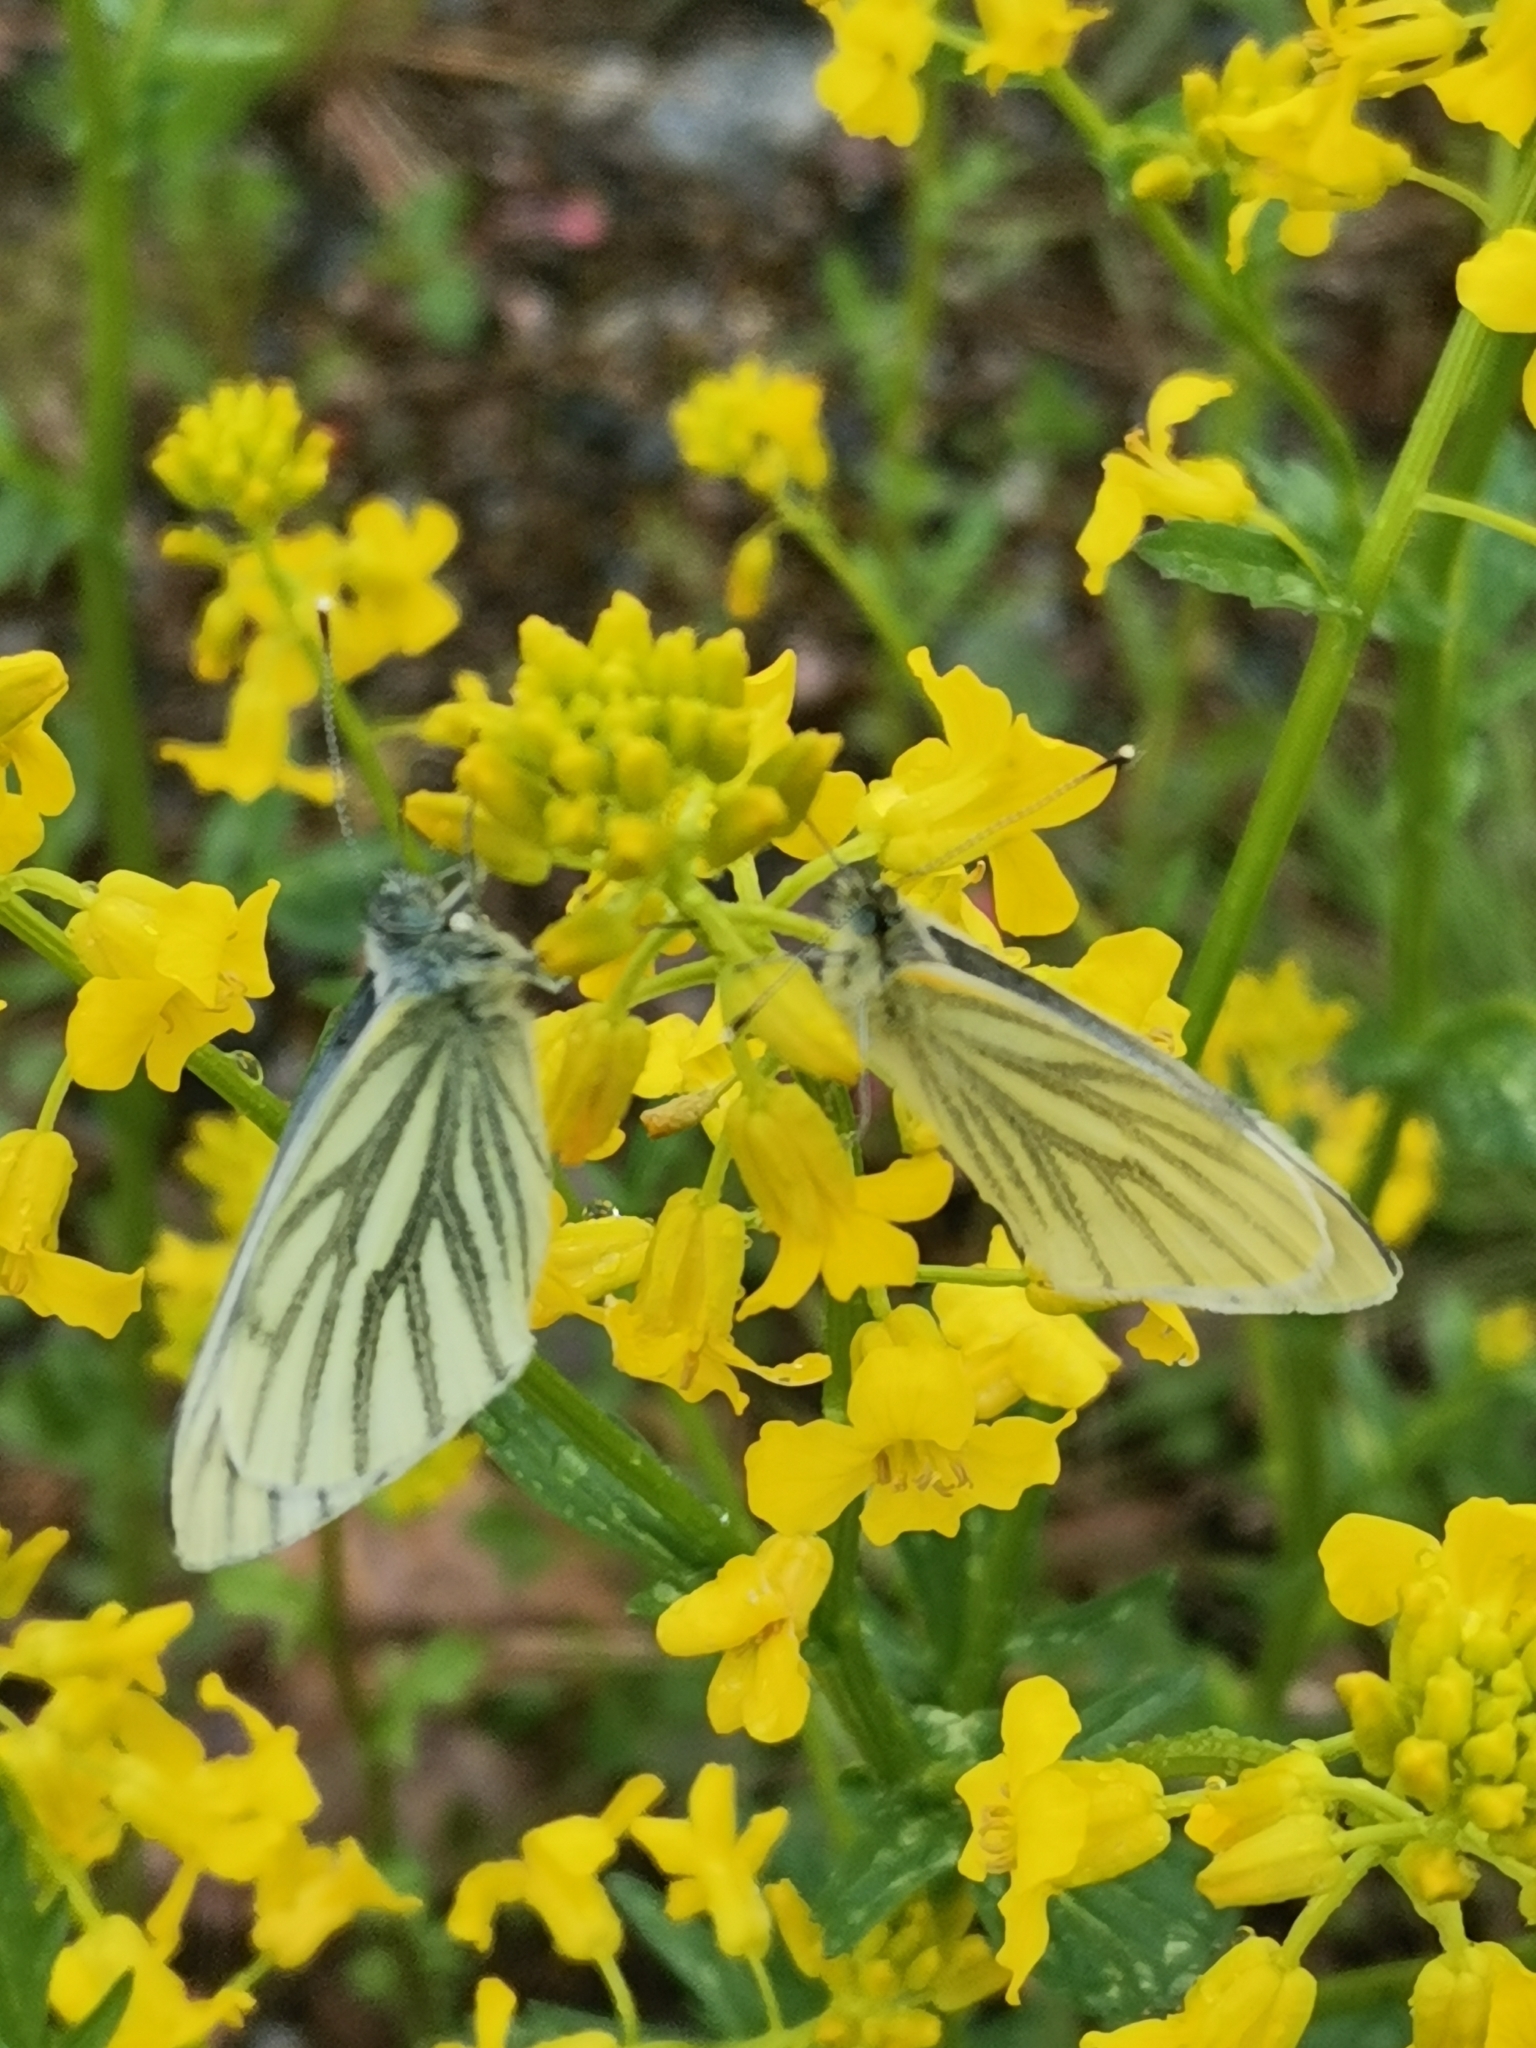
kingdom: Animalia
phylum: Arthropoda
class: Insecta
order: Lepidoptera
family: Pieridae
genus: Pieris
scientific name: Pieris napi
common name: Green-veined white
